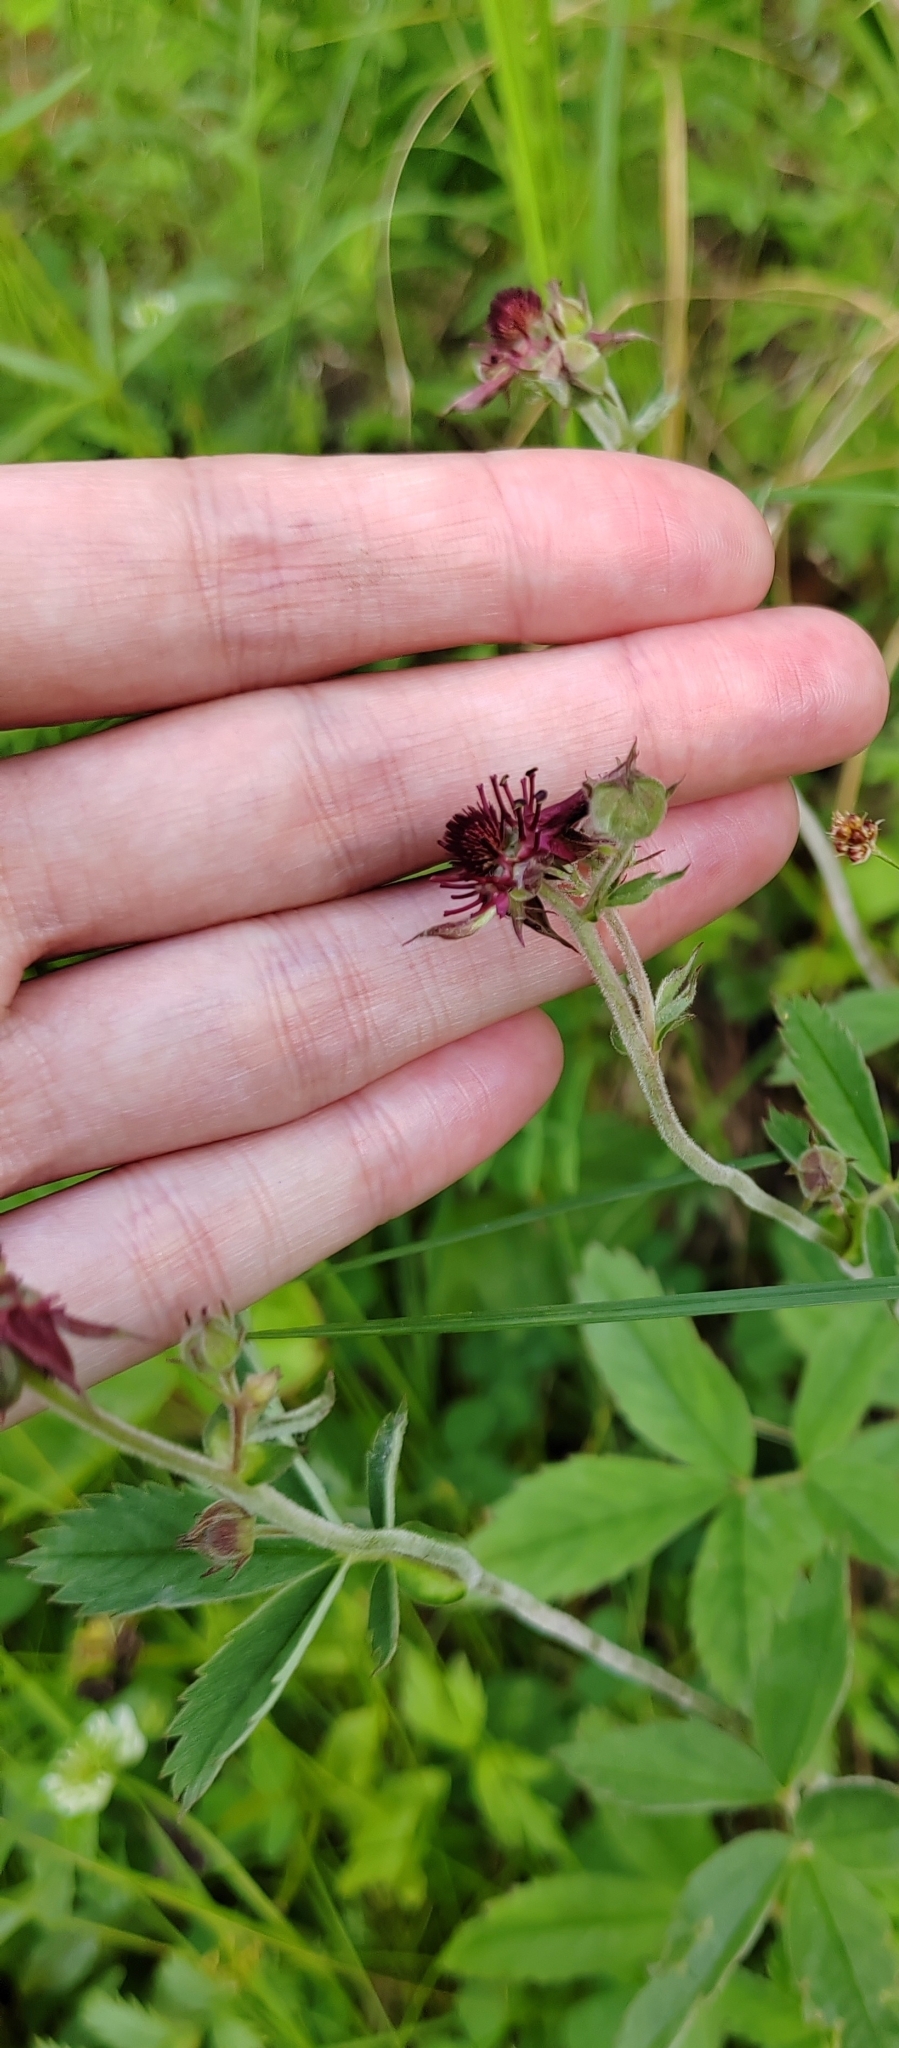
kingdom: Plantae
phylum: Tracheophyta
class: Magnoliopsida
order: Rosales
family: Rosaceae
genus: Comarum
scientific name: Comarum palustre
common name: Marsh cinquefoil
